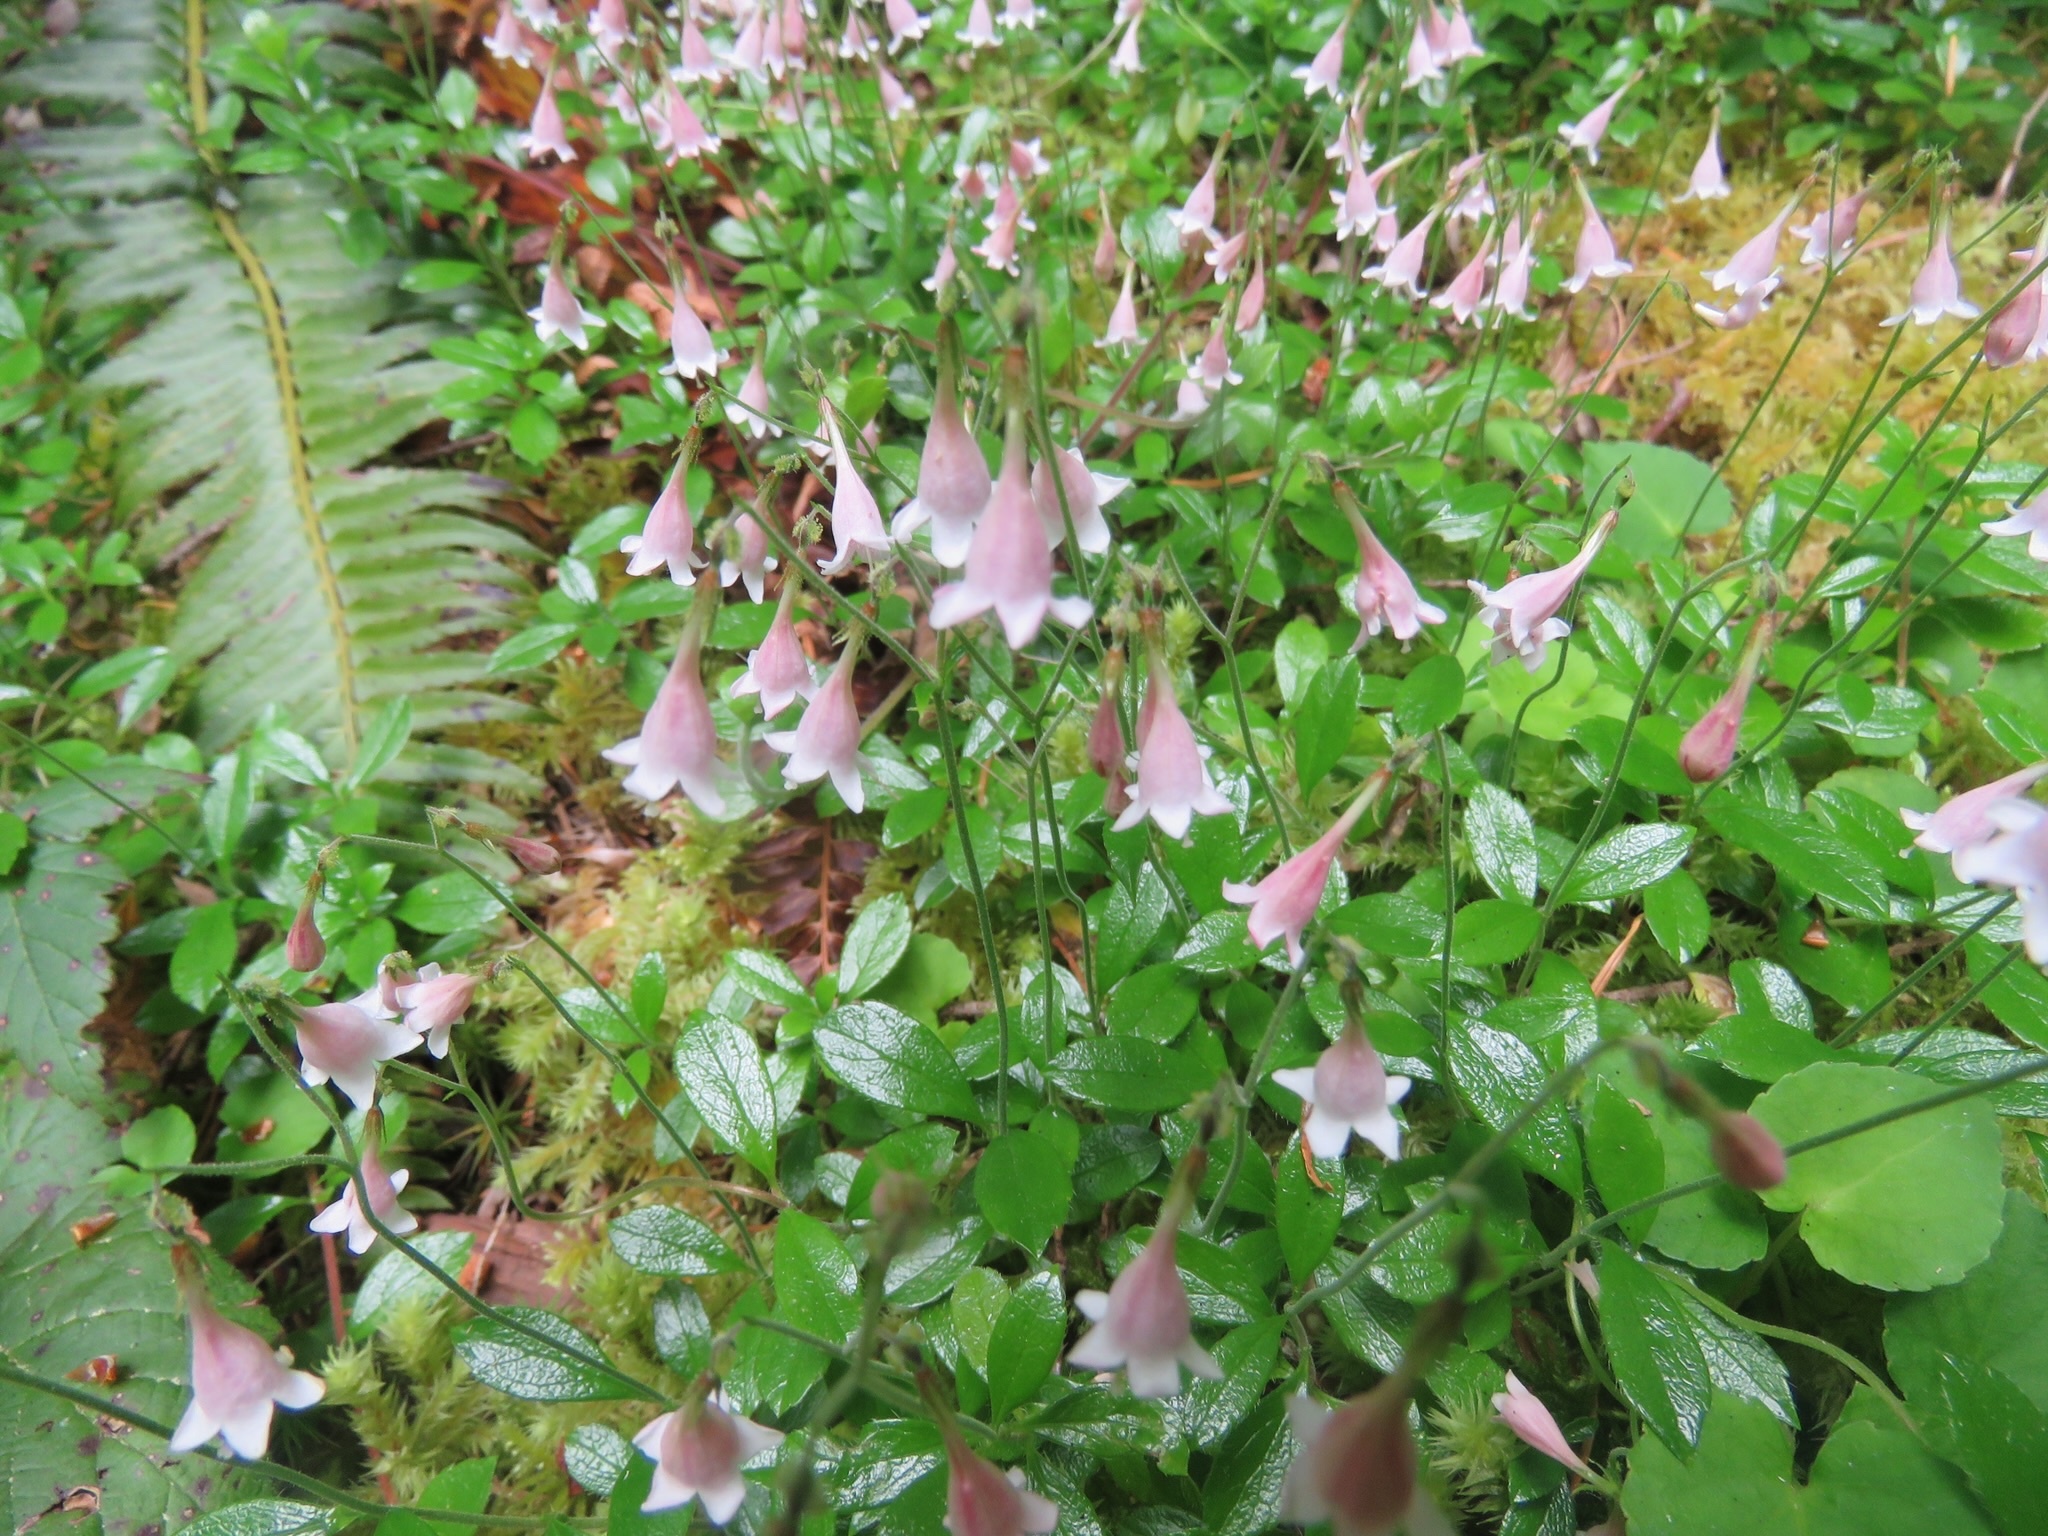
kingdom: Plantae
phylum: Tracheophyta
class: Magnoliopsida
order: Dipsacales
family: Caprifoliaceae
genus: Linnaea
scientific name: Linnaea borealis
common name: Twinflower
